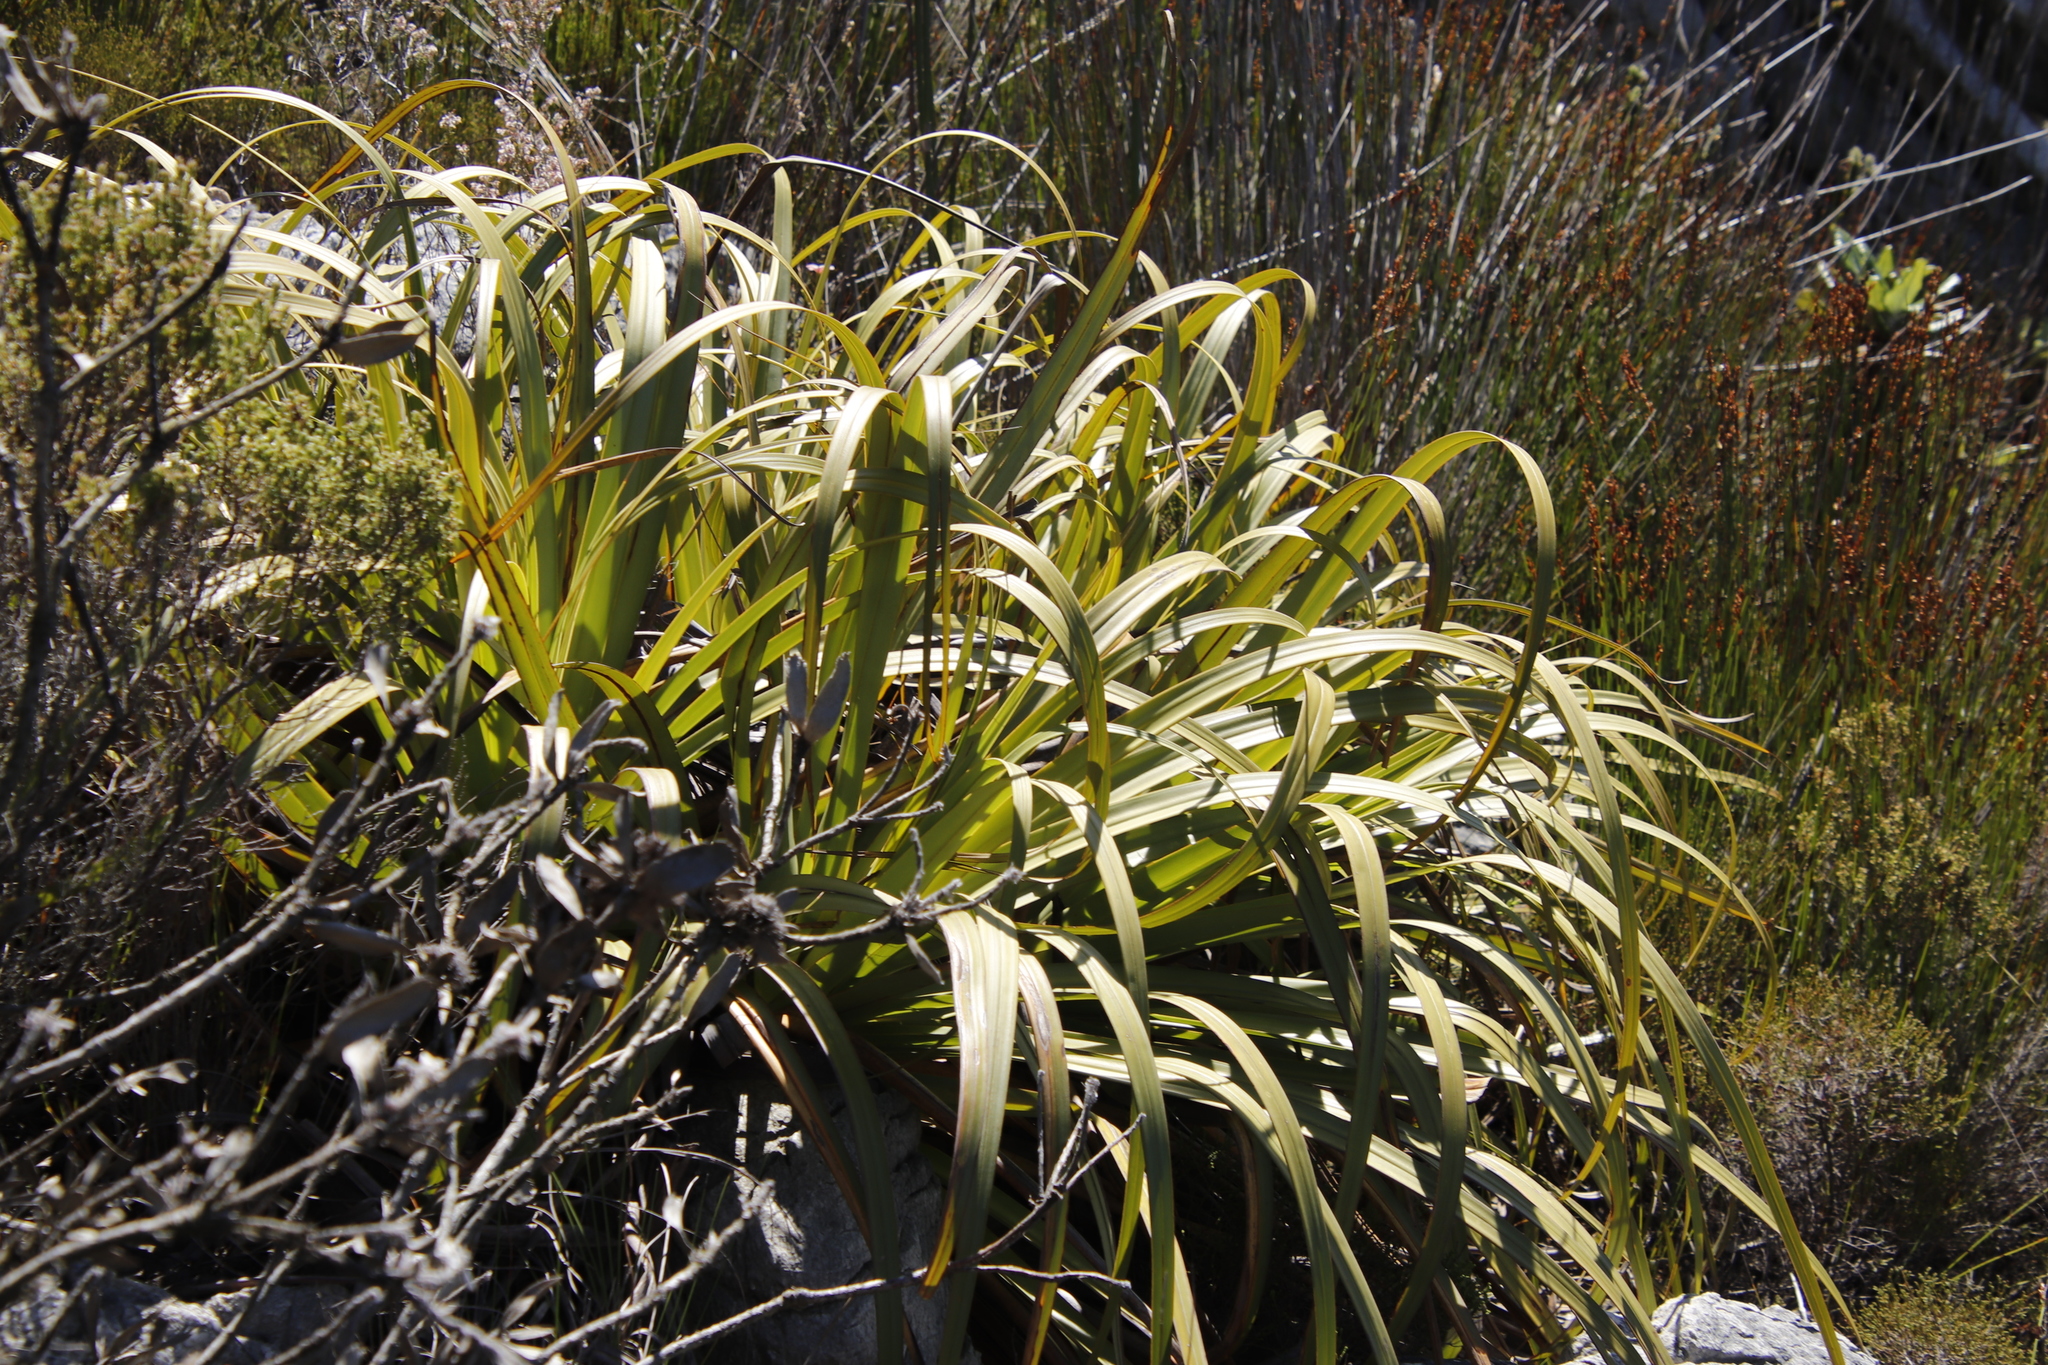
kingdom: Plantae
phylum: Tracheophyta
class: Liliopsida
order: Poales
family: Cyperaceae
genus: Tetraria
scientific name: Tetraria thermalis
